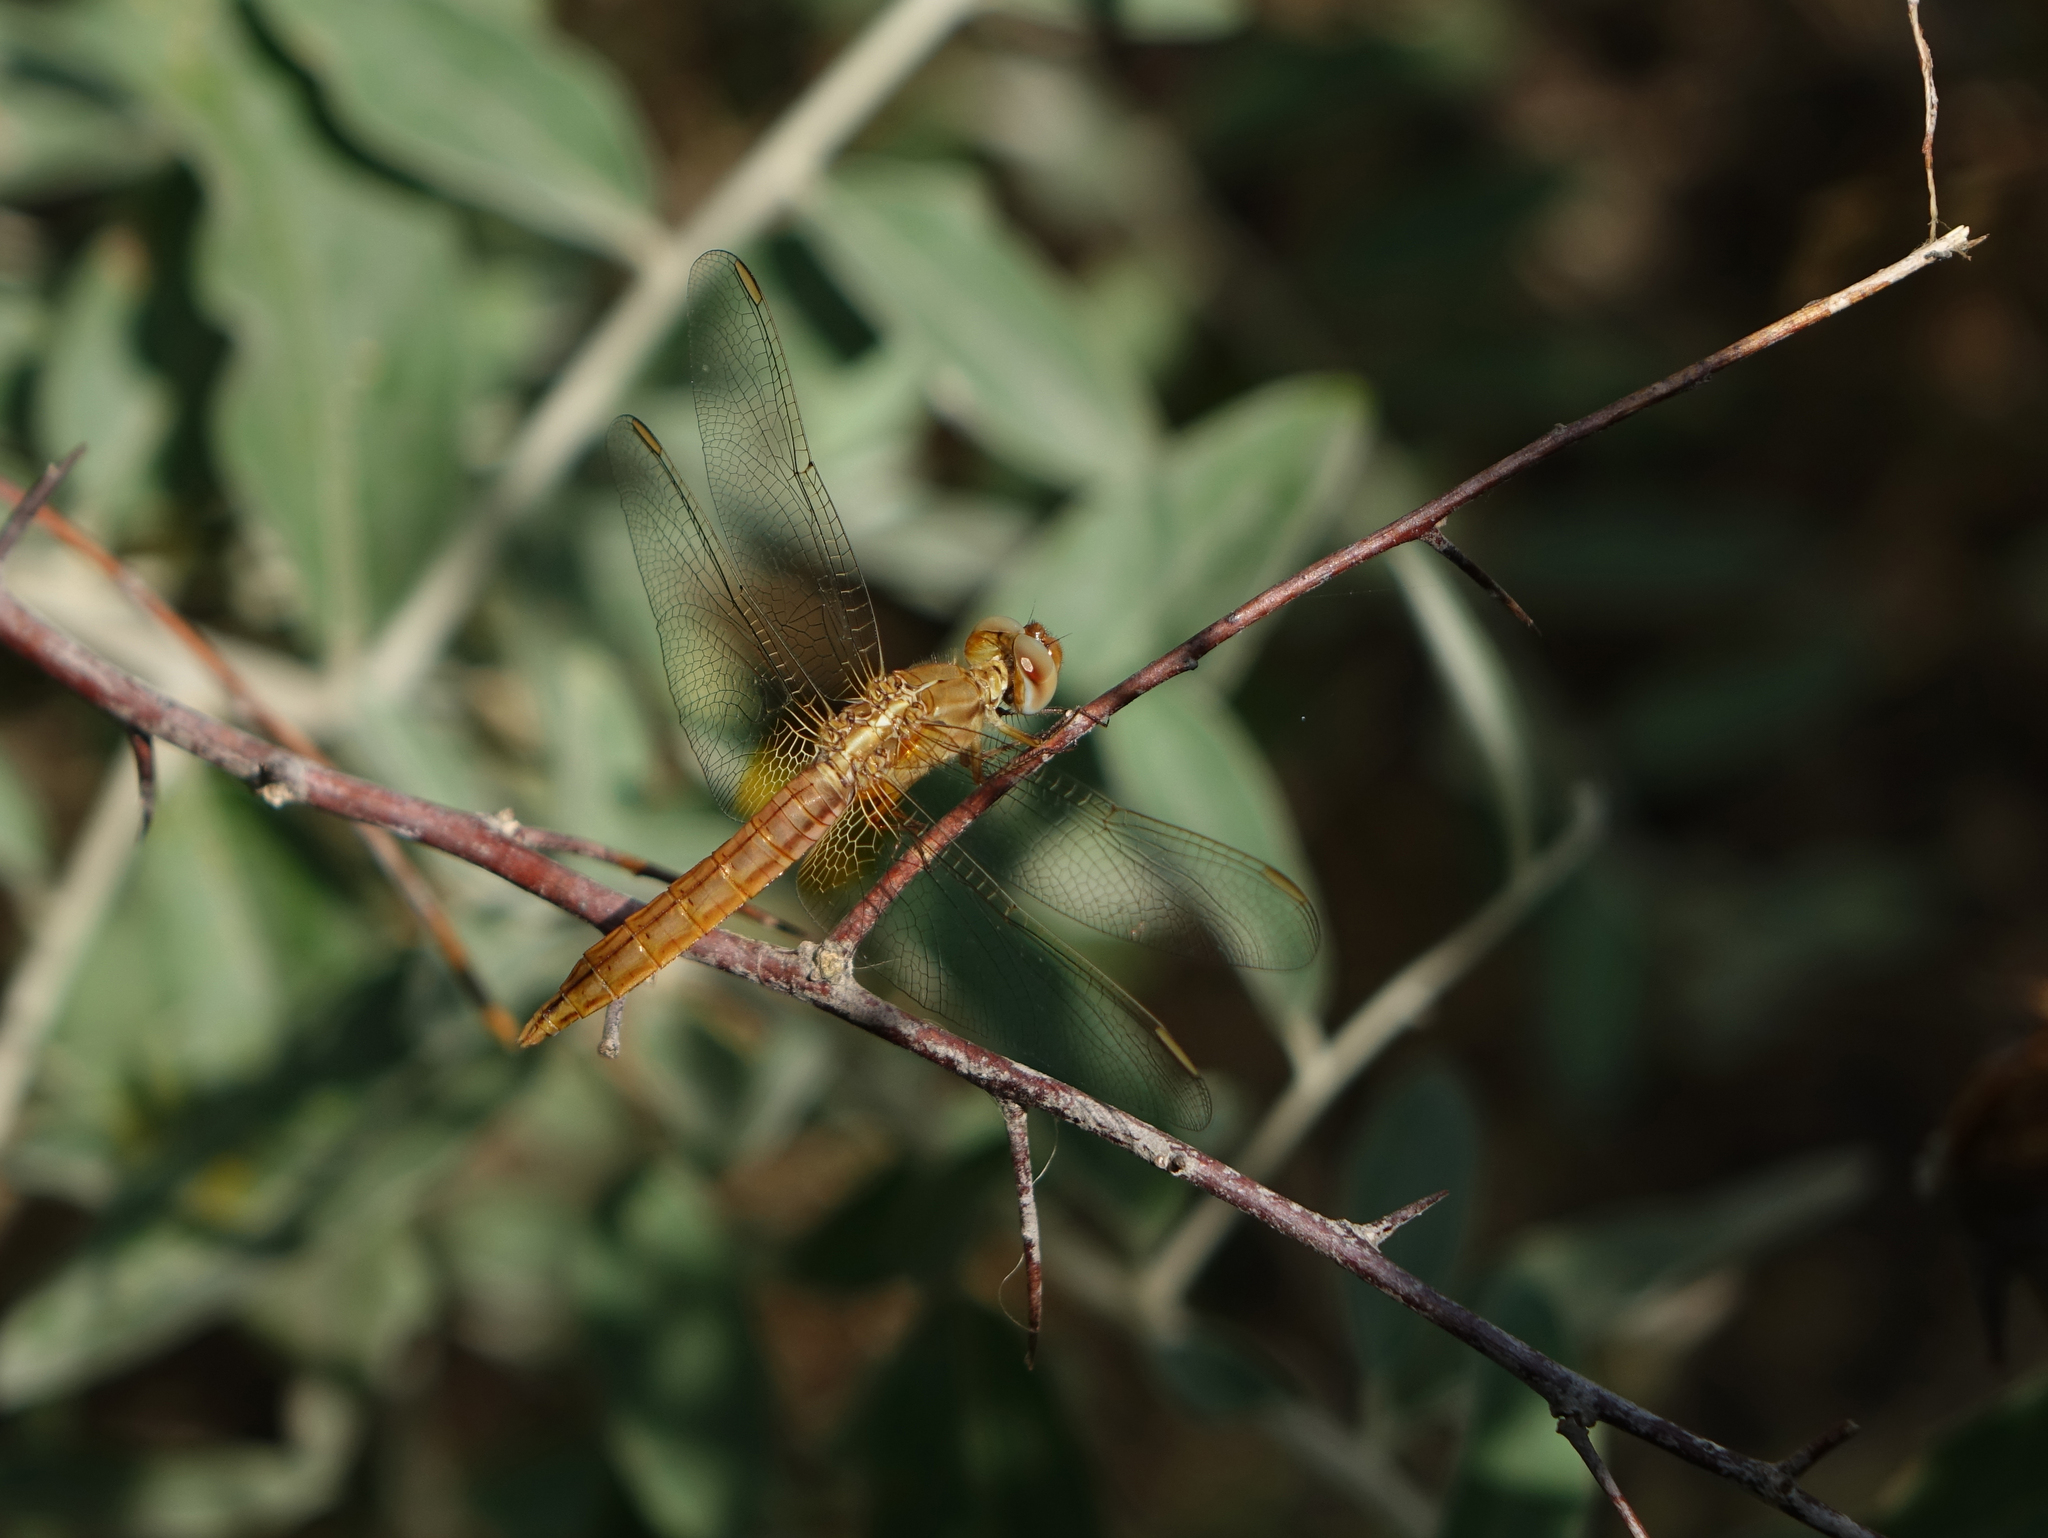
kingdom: Animalia
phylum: Arthropoda
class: Insecta
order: Odonata
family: Libellulidae
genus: Crocothemis
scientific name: Crocothemis erythraea
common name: Scarlet dragonfly
